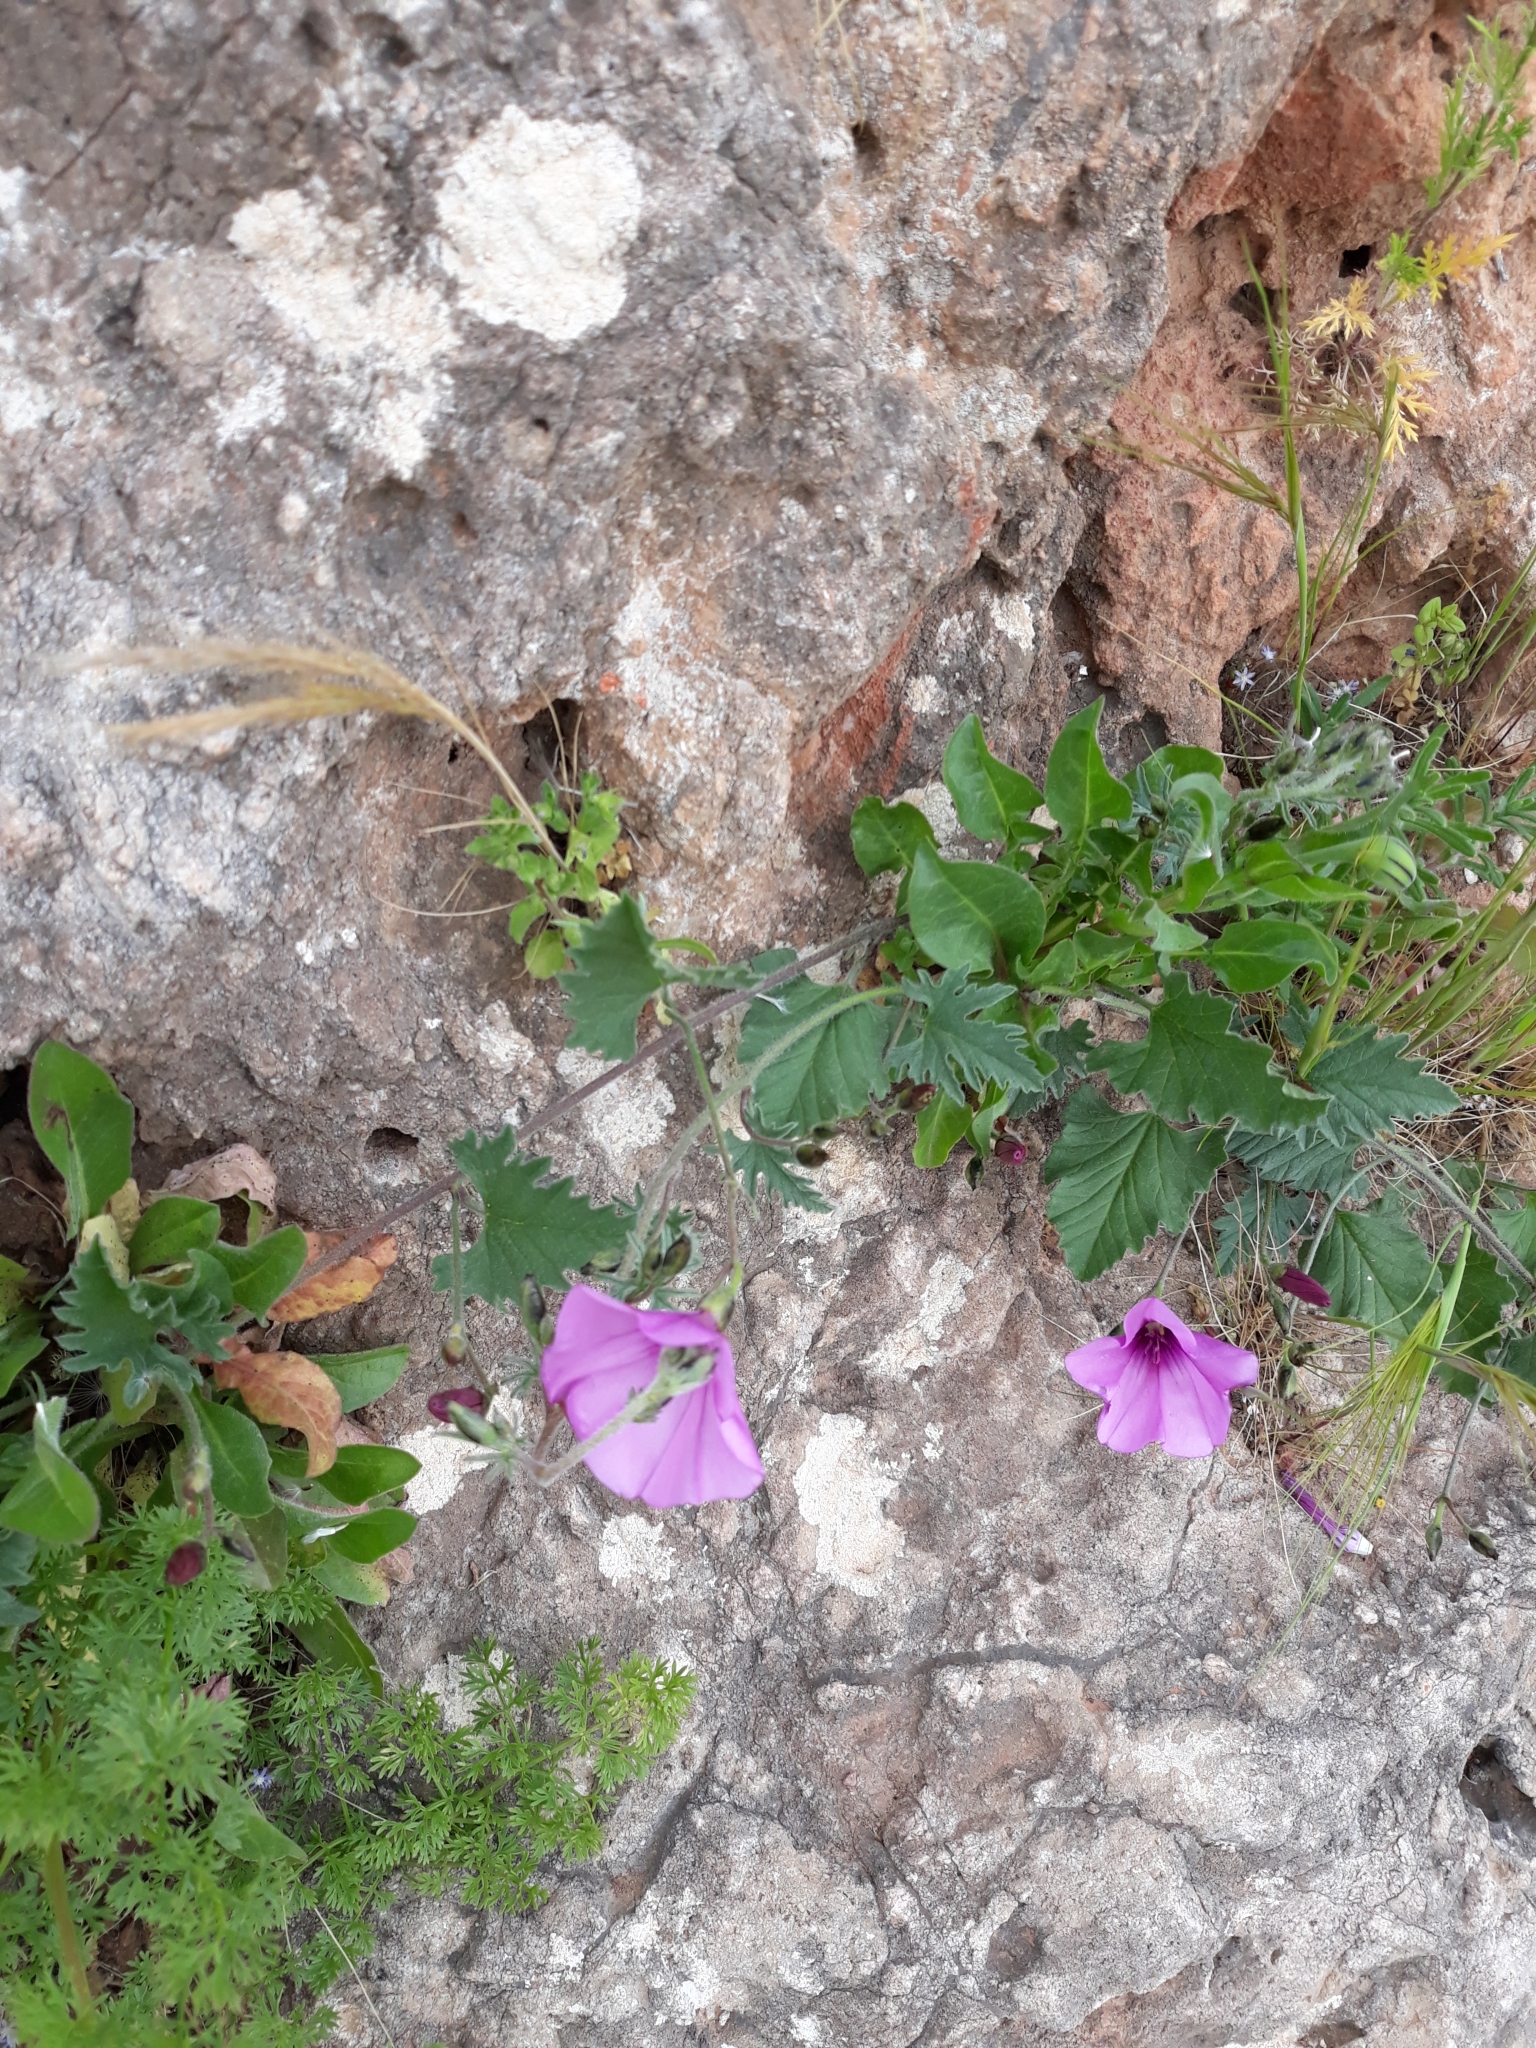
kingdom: Plantae
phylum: Tracheophyta
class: Magnoliopsida
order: Solanales
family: Convolvulaceae
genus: Convolvulus
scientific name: Convolvulus althaeoides
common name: Mallow bindweed
